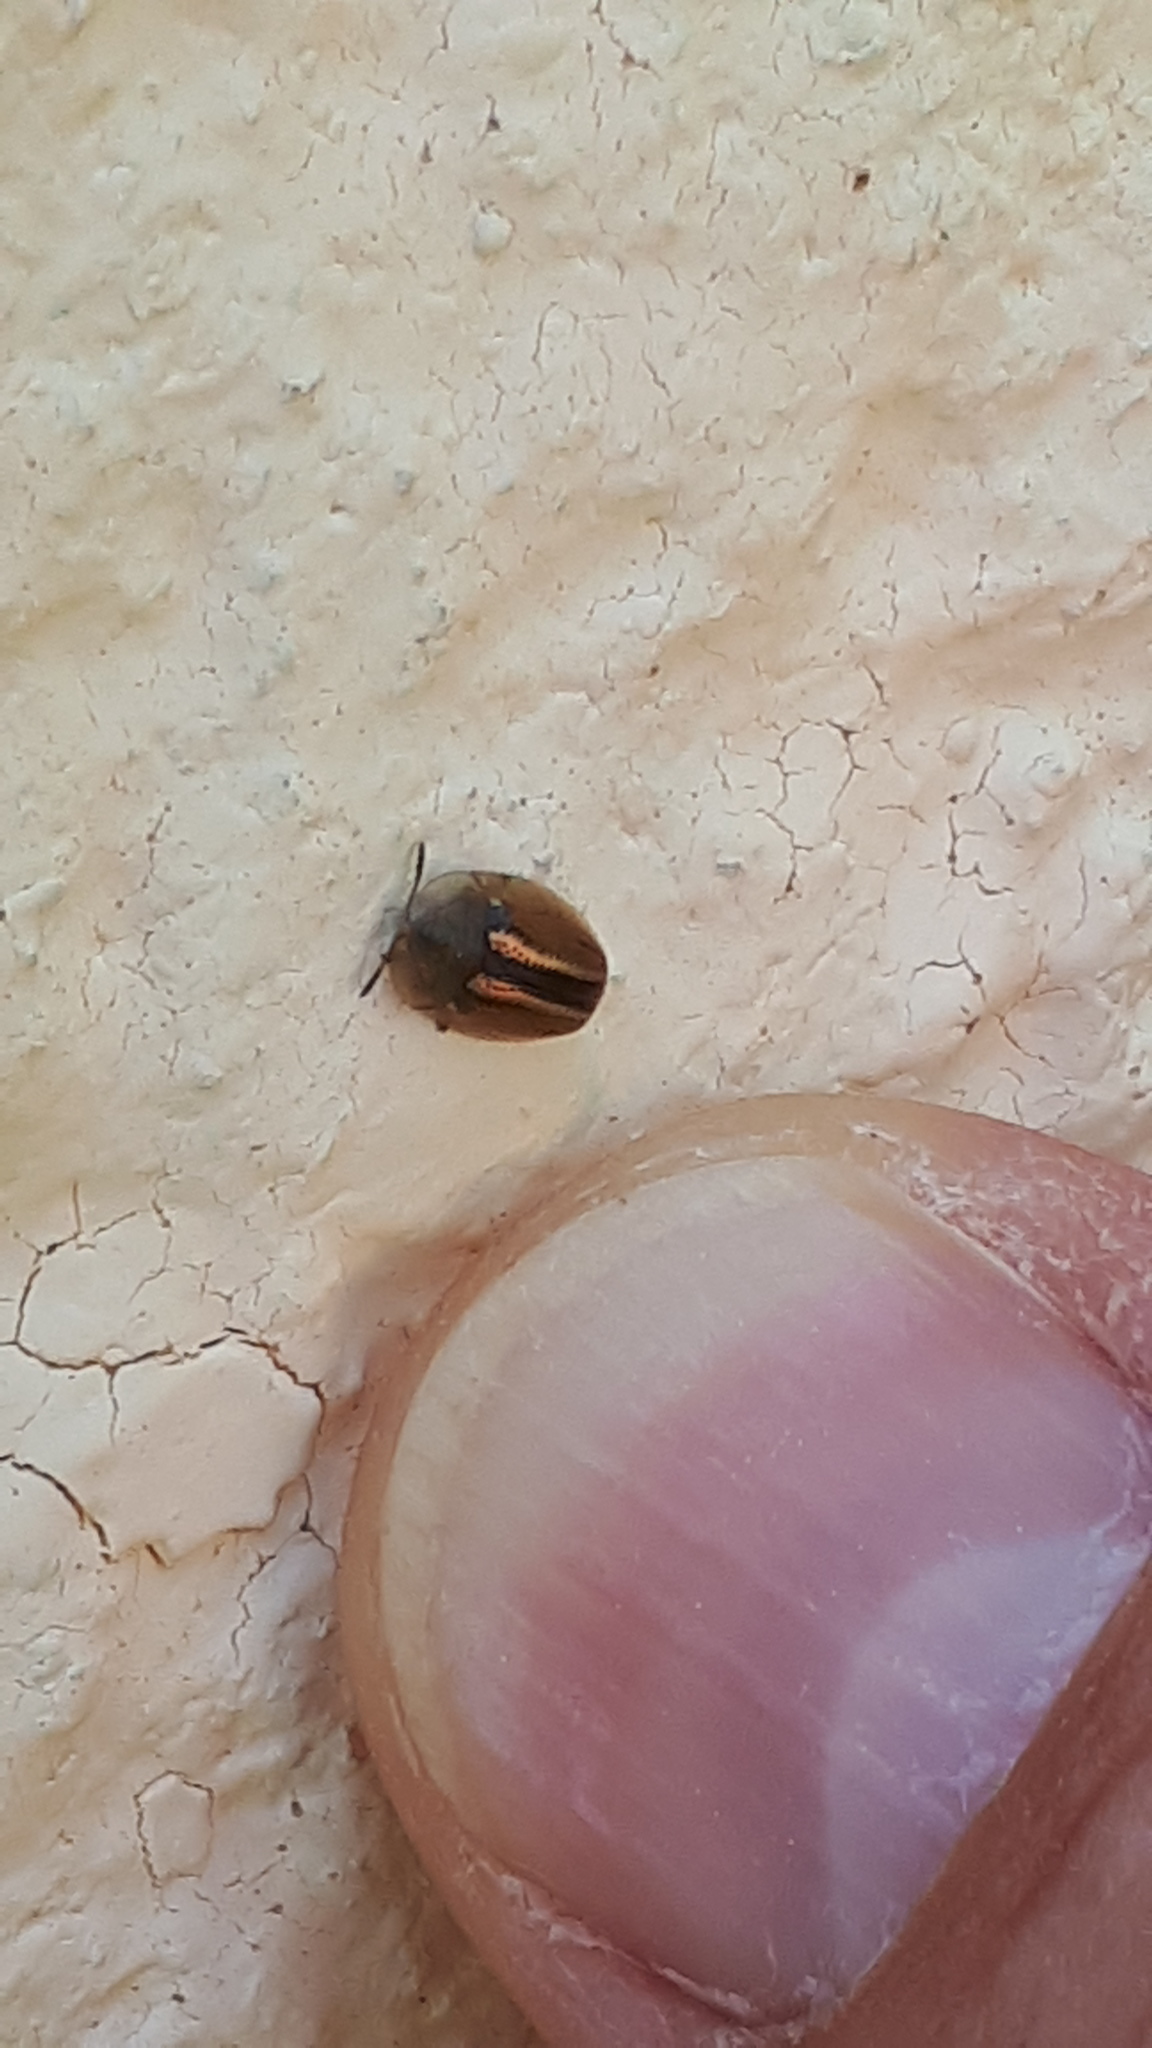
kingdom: Animalia
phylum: Arthropoda
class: Insecta
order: Coleoptera
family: Chrysomelidae
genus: Cassida
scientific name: Cassida nobilis
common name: Leaf beetle
